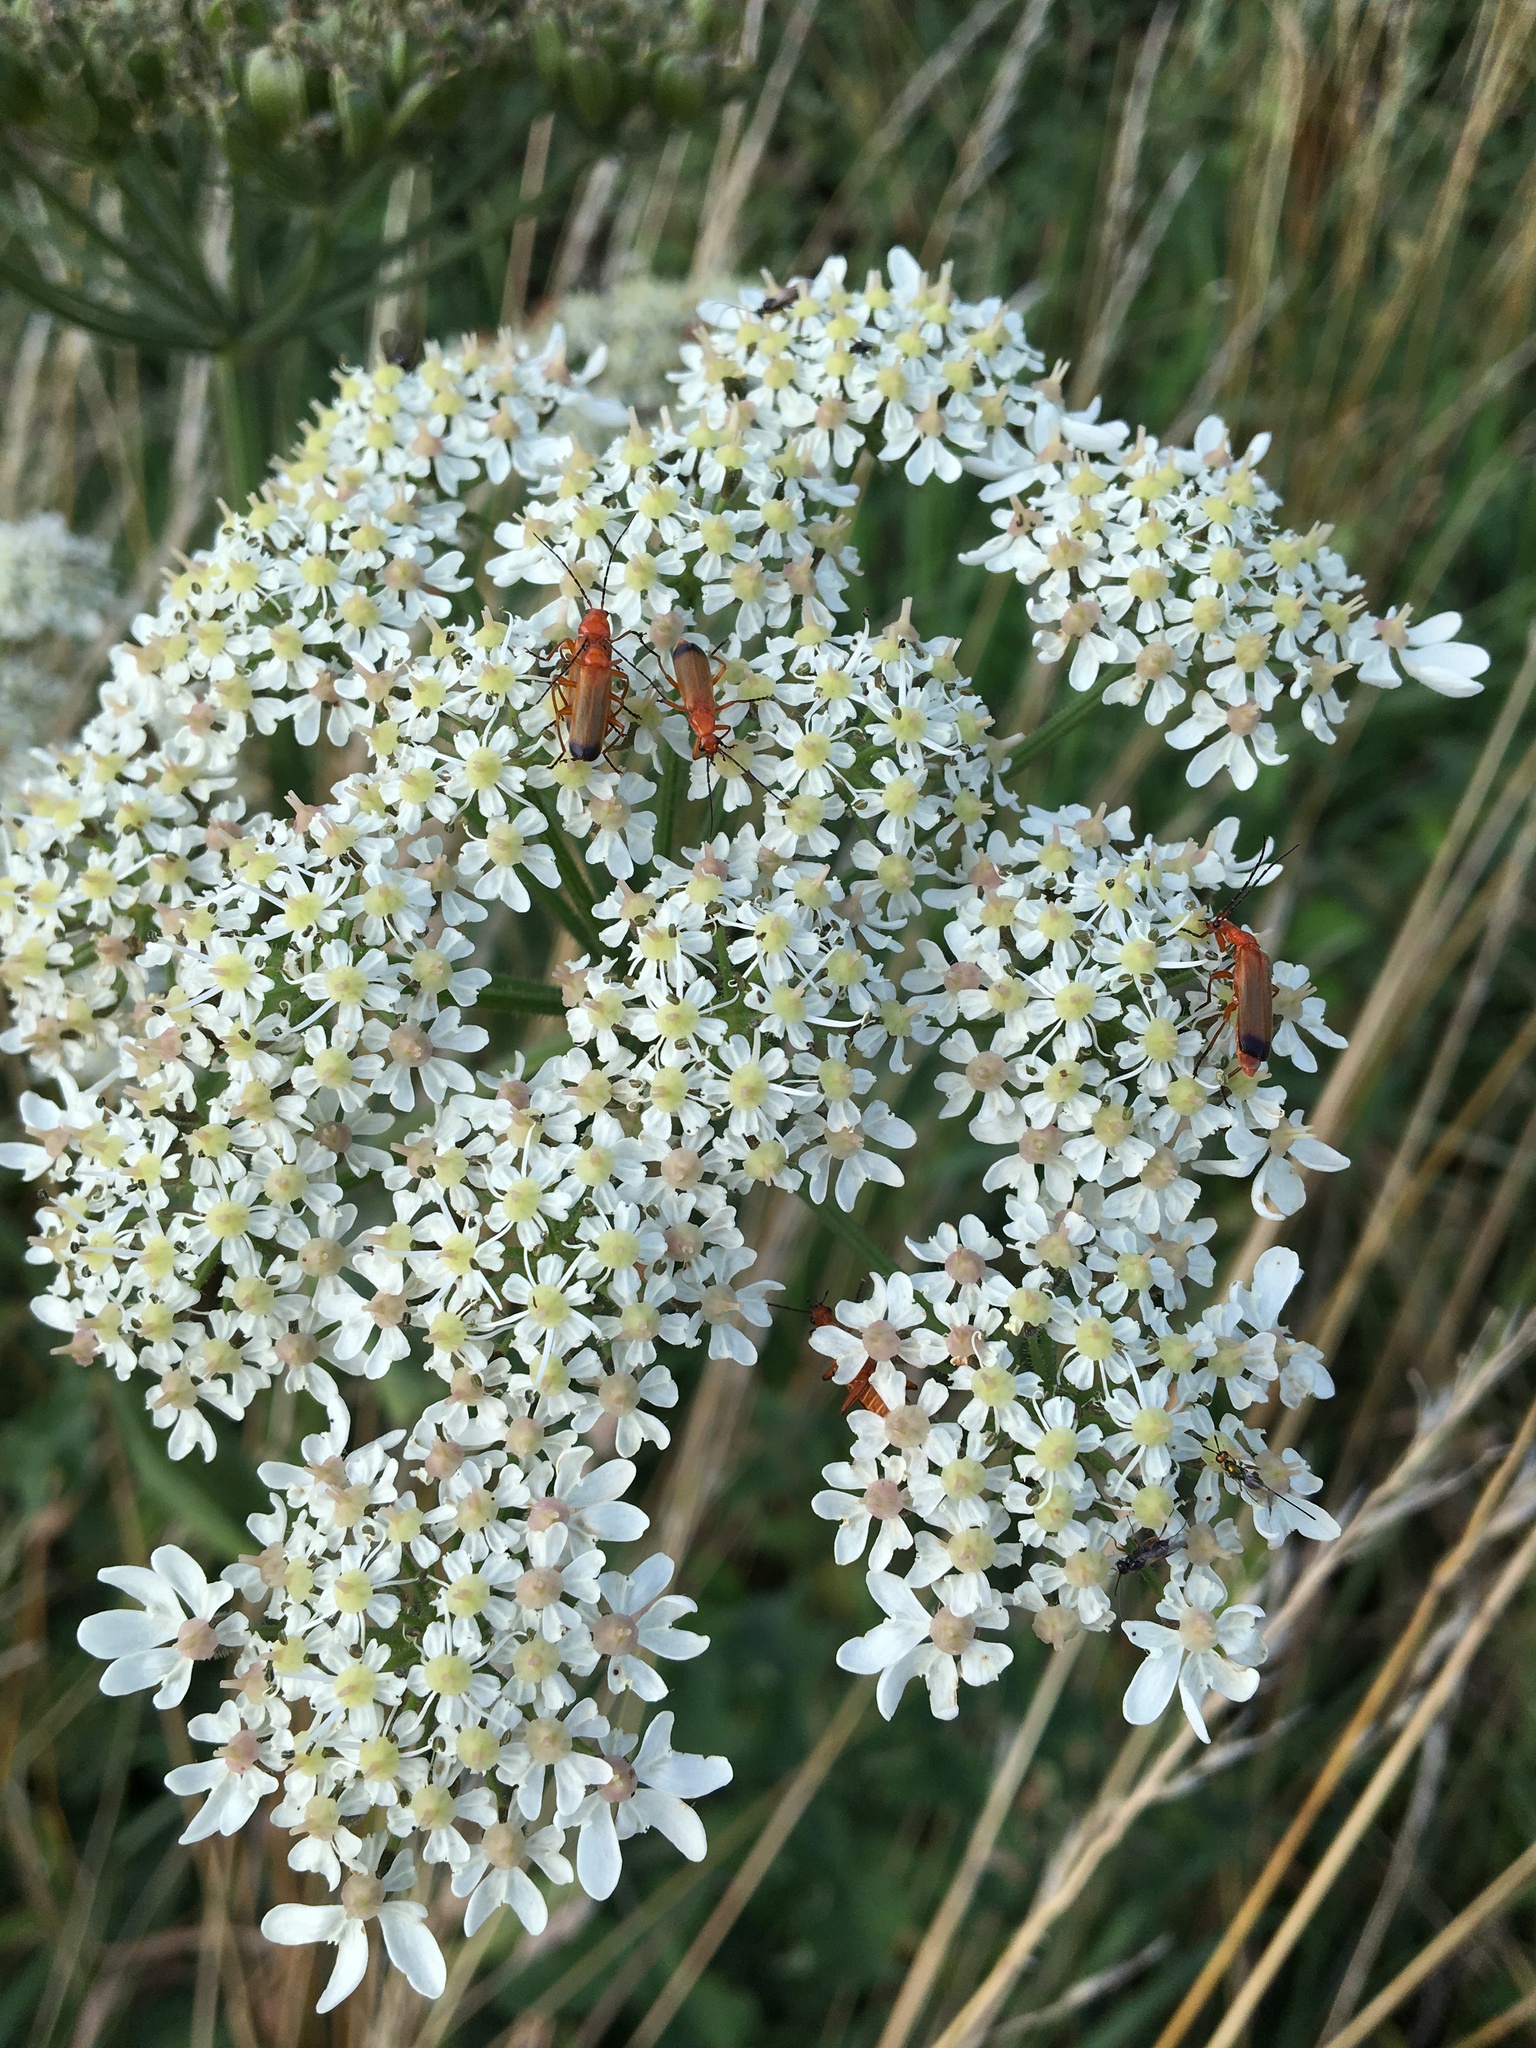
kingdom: Animalia
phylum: Arthropoda
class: Insecta
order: Coleoptera
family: Cantharidae
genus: Rhagonycha
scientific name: Rhagonycha fulva
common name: Common red soldier beetle
